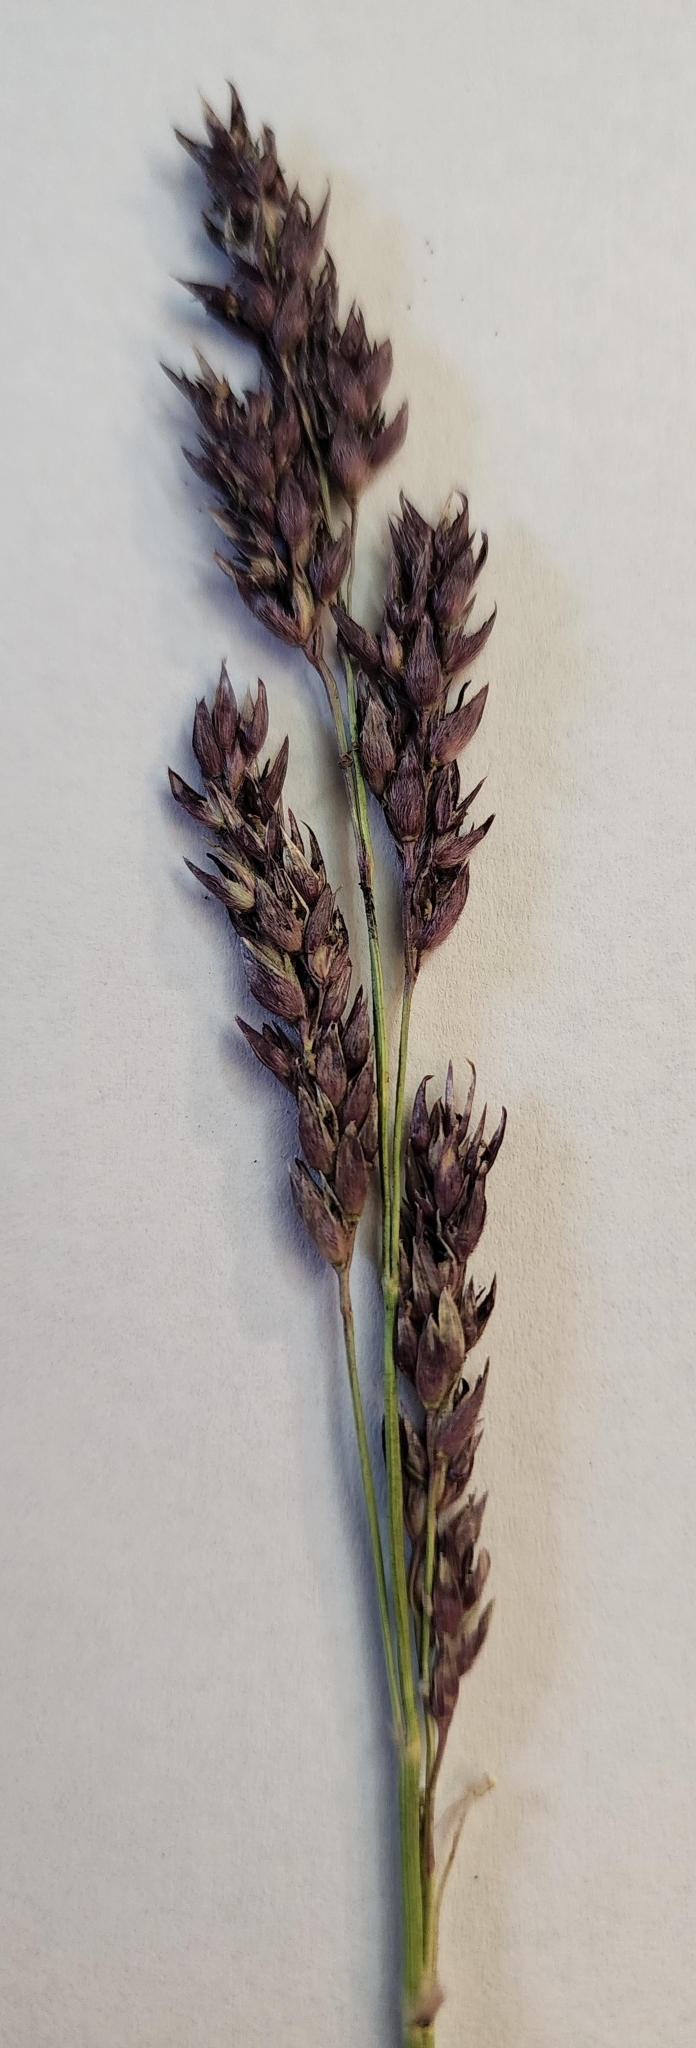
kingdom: Plantae
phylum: Tracheophyta
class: Liliopsida
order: Poales
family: Poaceae
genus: Sorghum
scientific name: Sorghum halepense
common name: Johnson-grass
